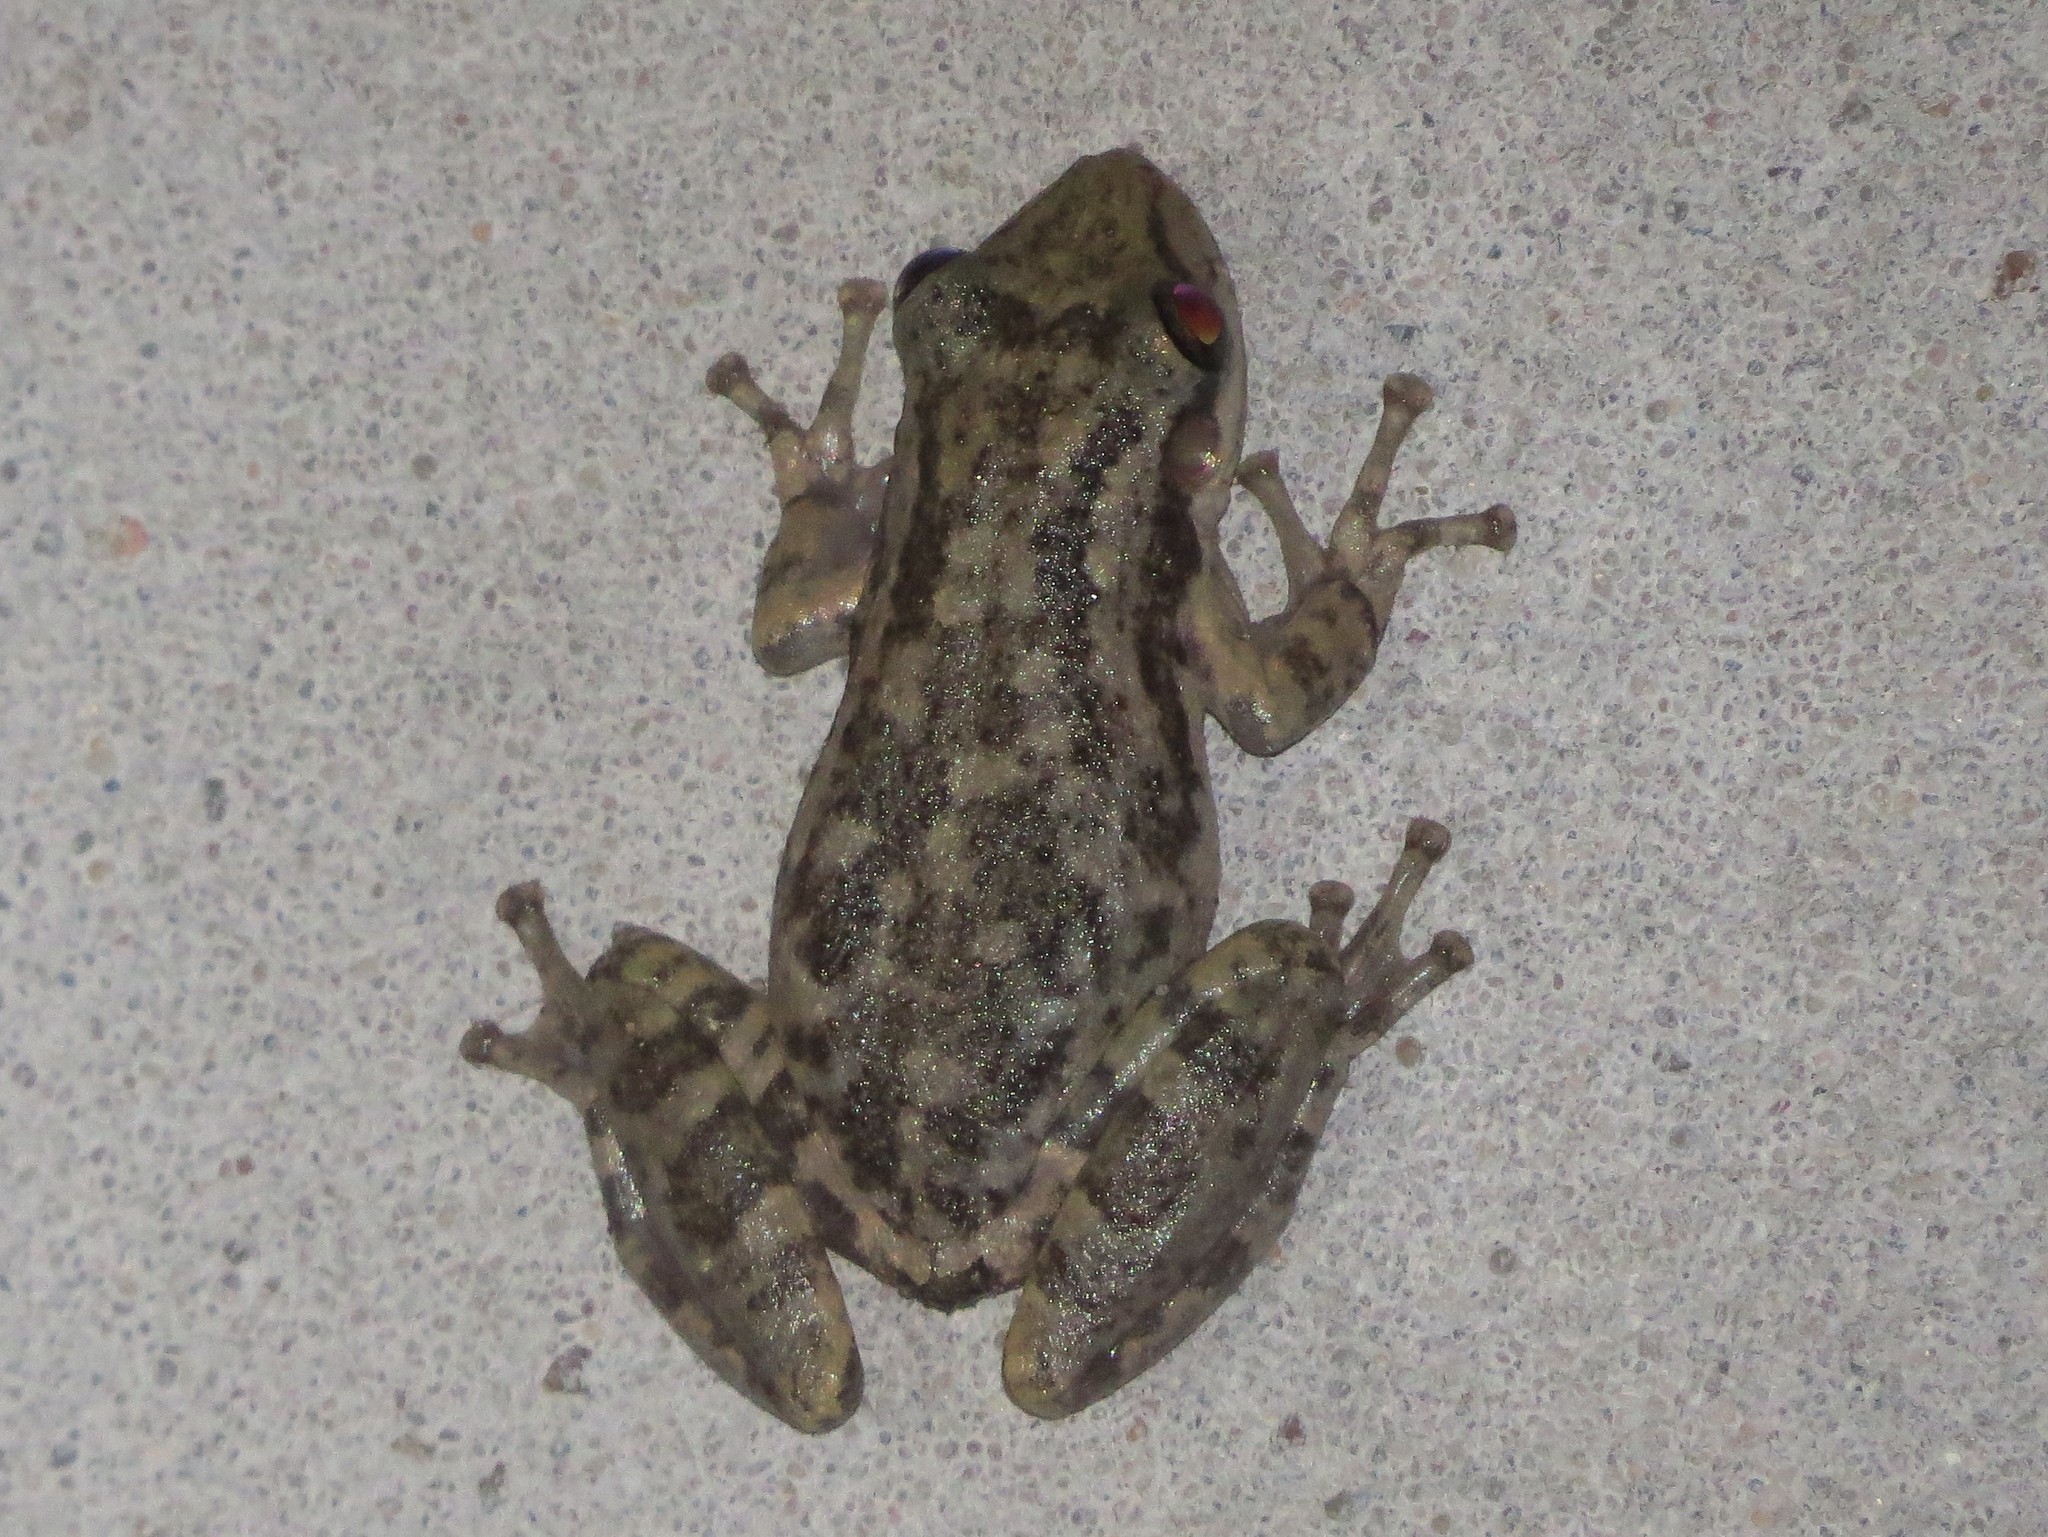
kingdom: Animalia
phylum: Chordata
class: Amphibia
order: Anura
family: Hylidae
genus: Scinax
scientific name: Scinax granulatus
